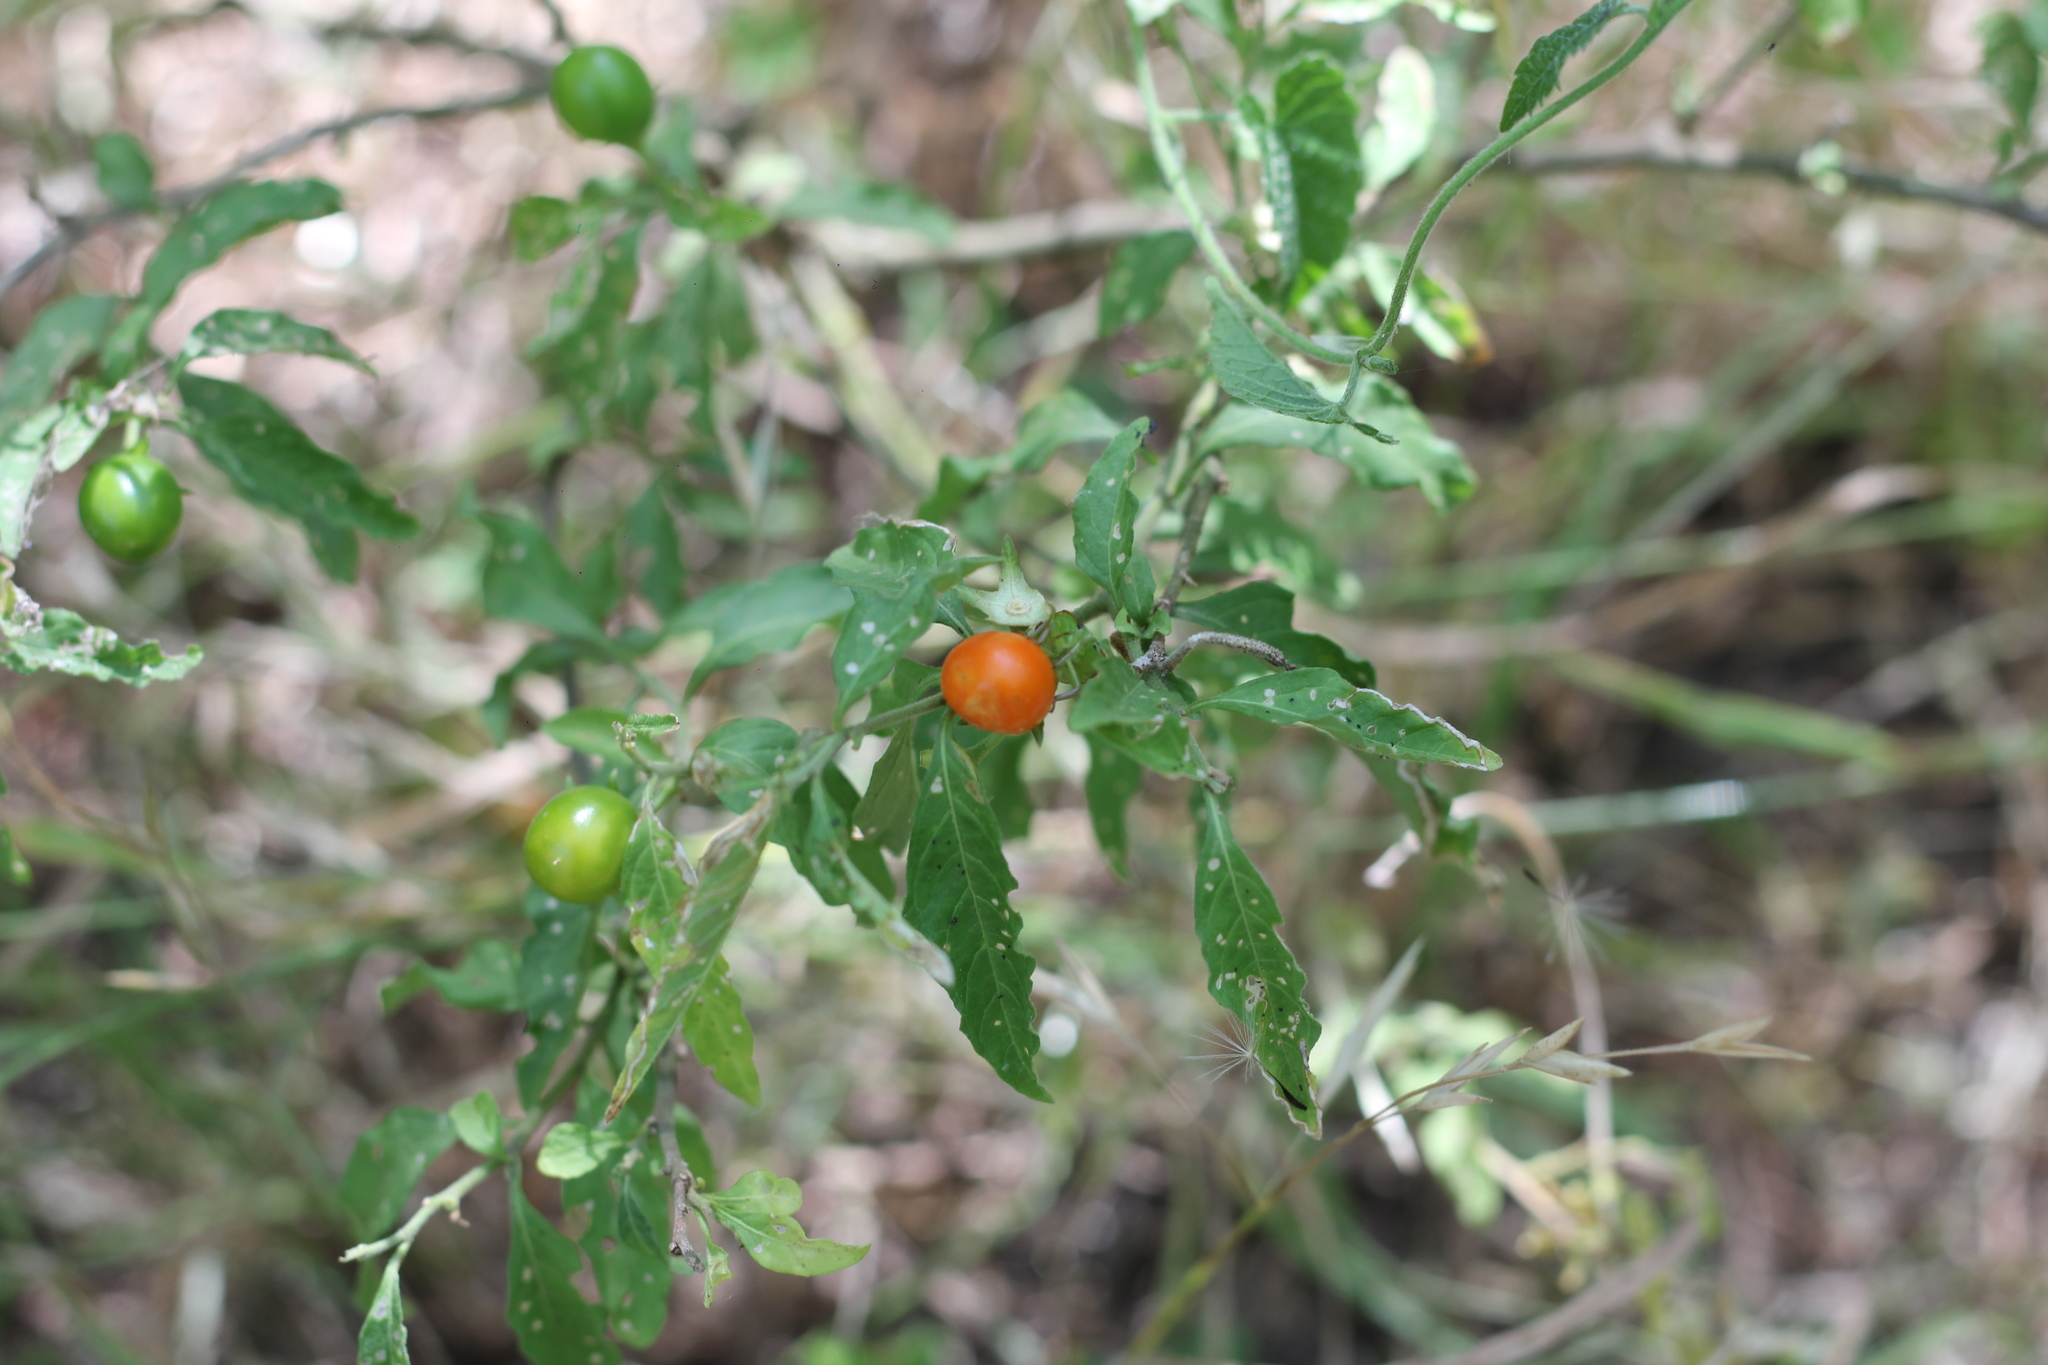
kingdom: Plantae
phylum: Tracheophyta
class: Magnoliopsida
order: Solanales
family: Solanaceae
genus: Solanum
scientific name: Solanum pseudocapsicum
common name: Jerusalem cherry
